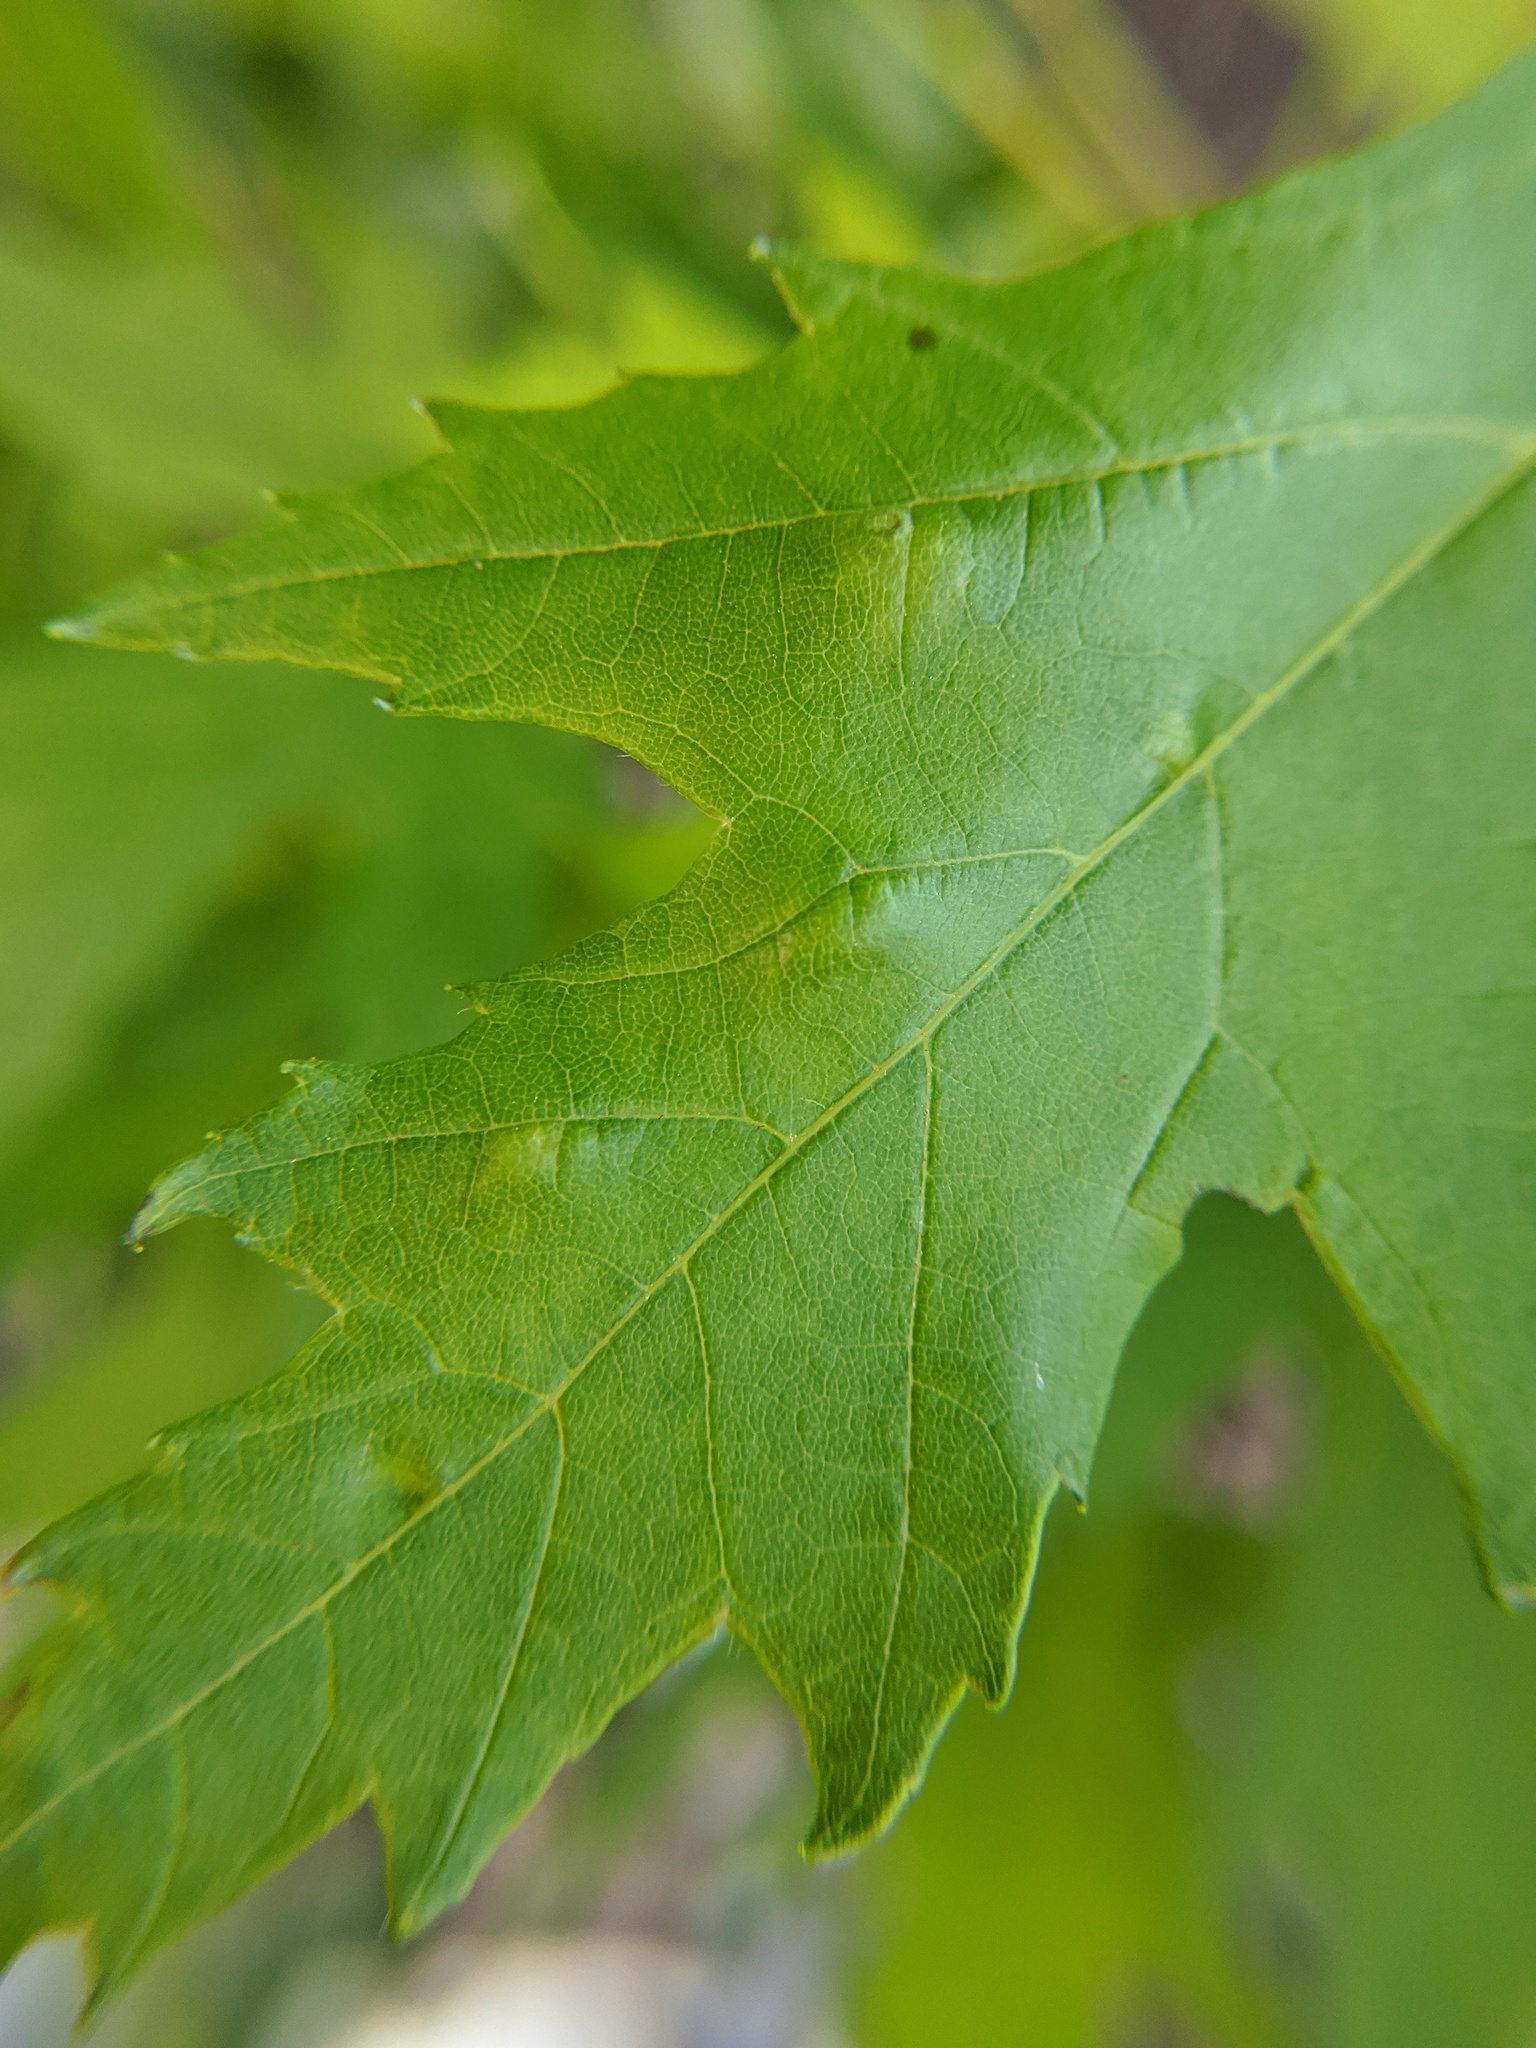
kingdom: Fungi
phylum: Ascomycota
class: Taphrinomycetes
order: Taphrinales
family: Taphrinaceae
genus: Taphrina
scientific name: Taphrina carveri
